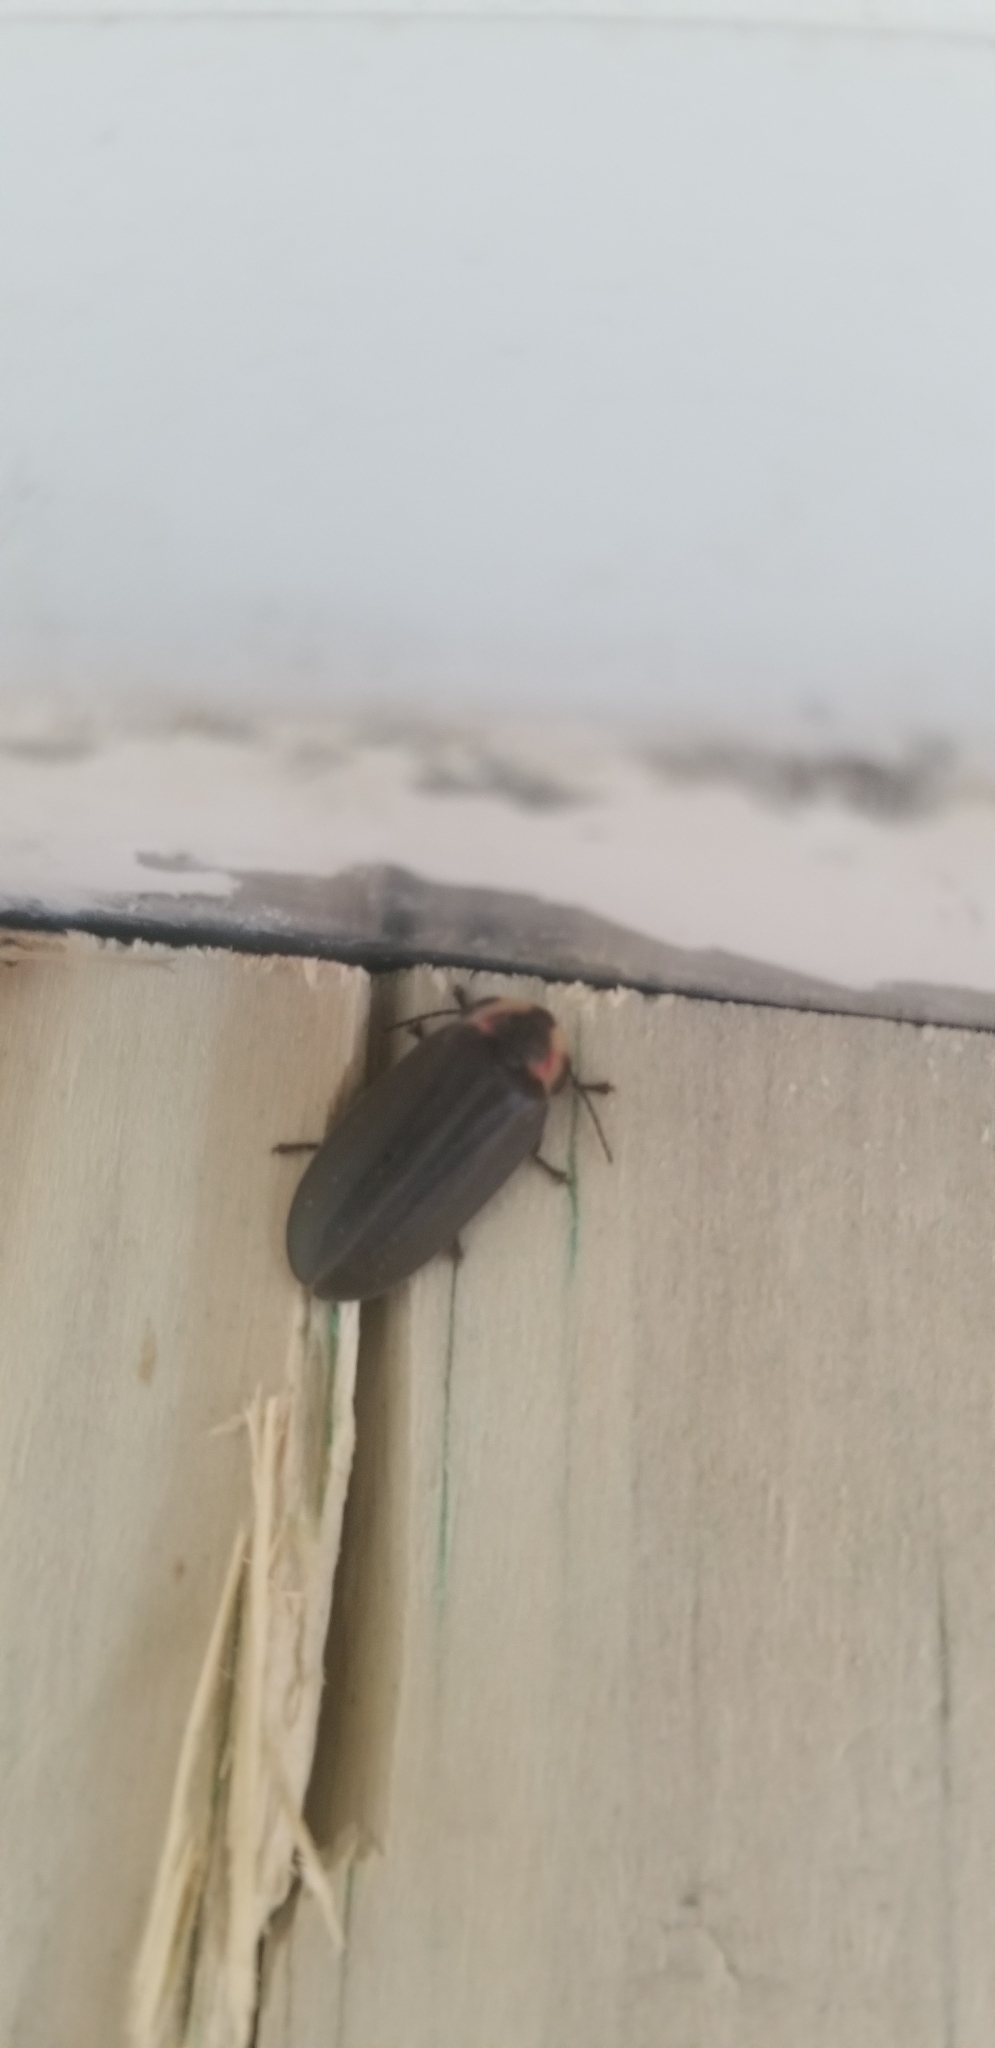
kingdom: Animalia
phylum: Arthropoda
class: Insecta
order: Coleoptera
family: Lampyridae
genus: Photinus
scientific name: Photinus corrusca
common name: Winter firefly
